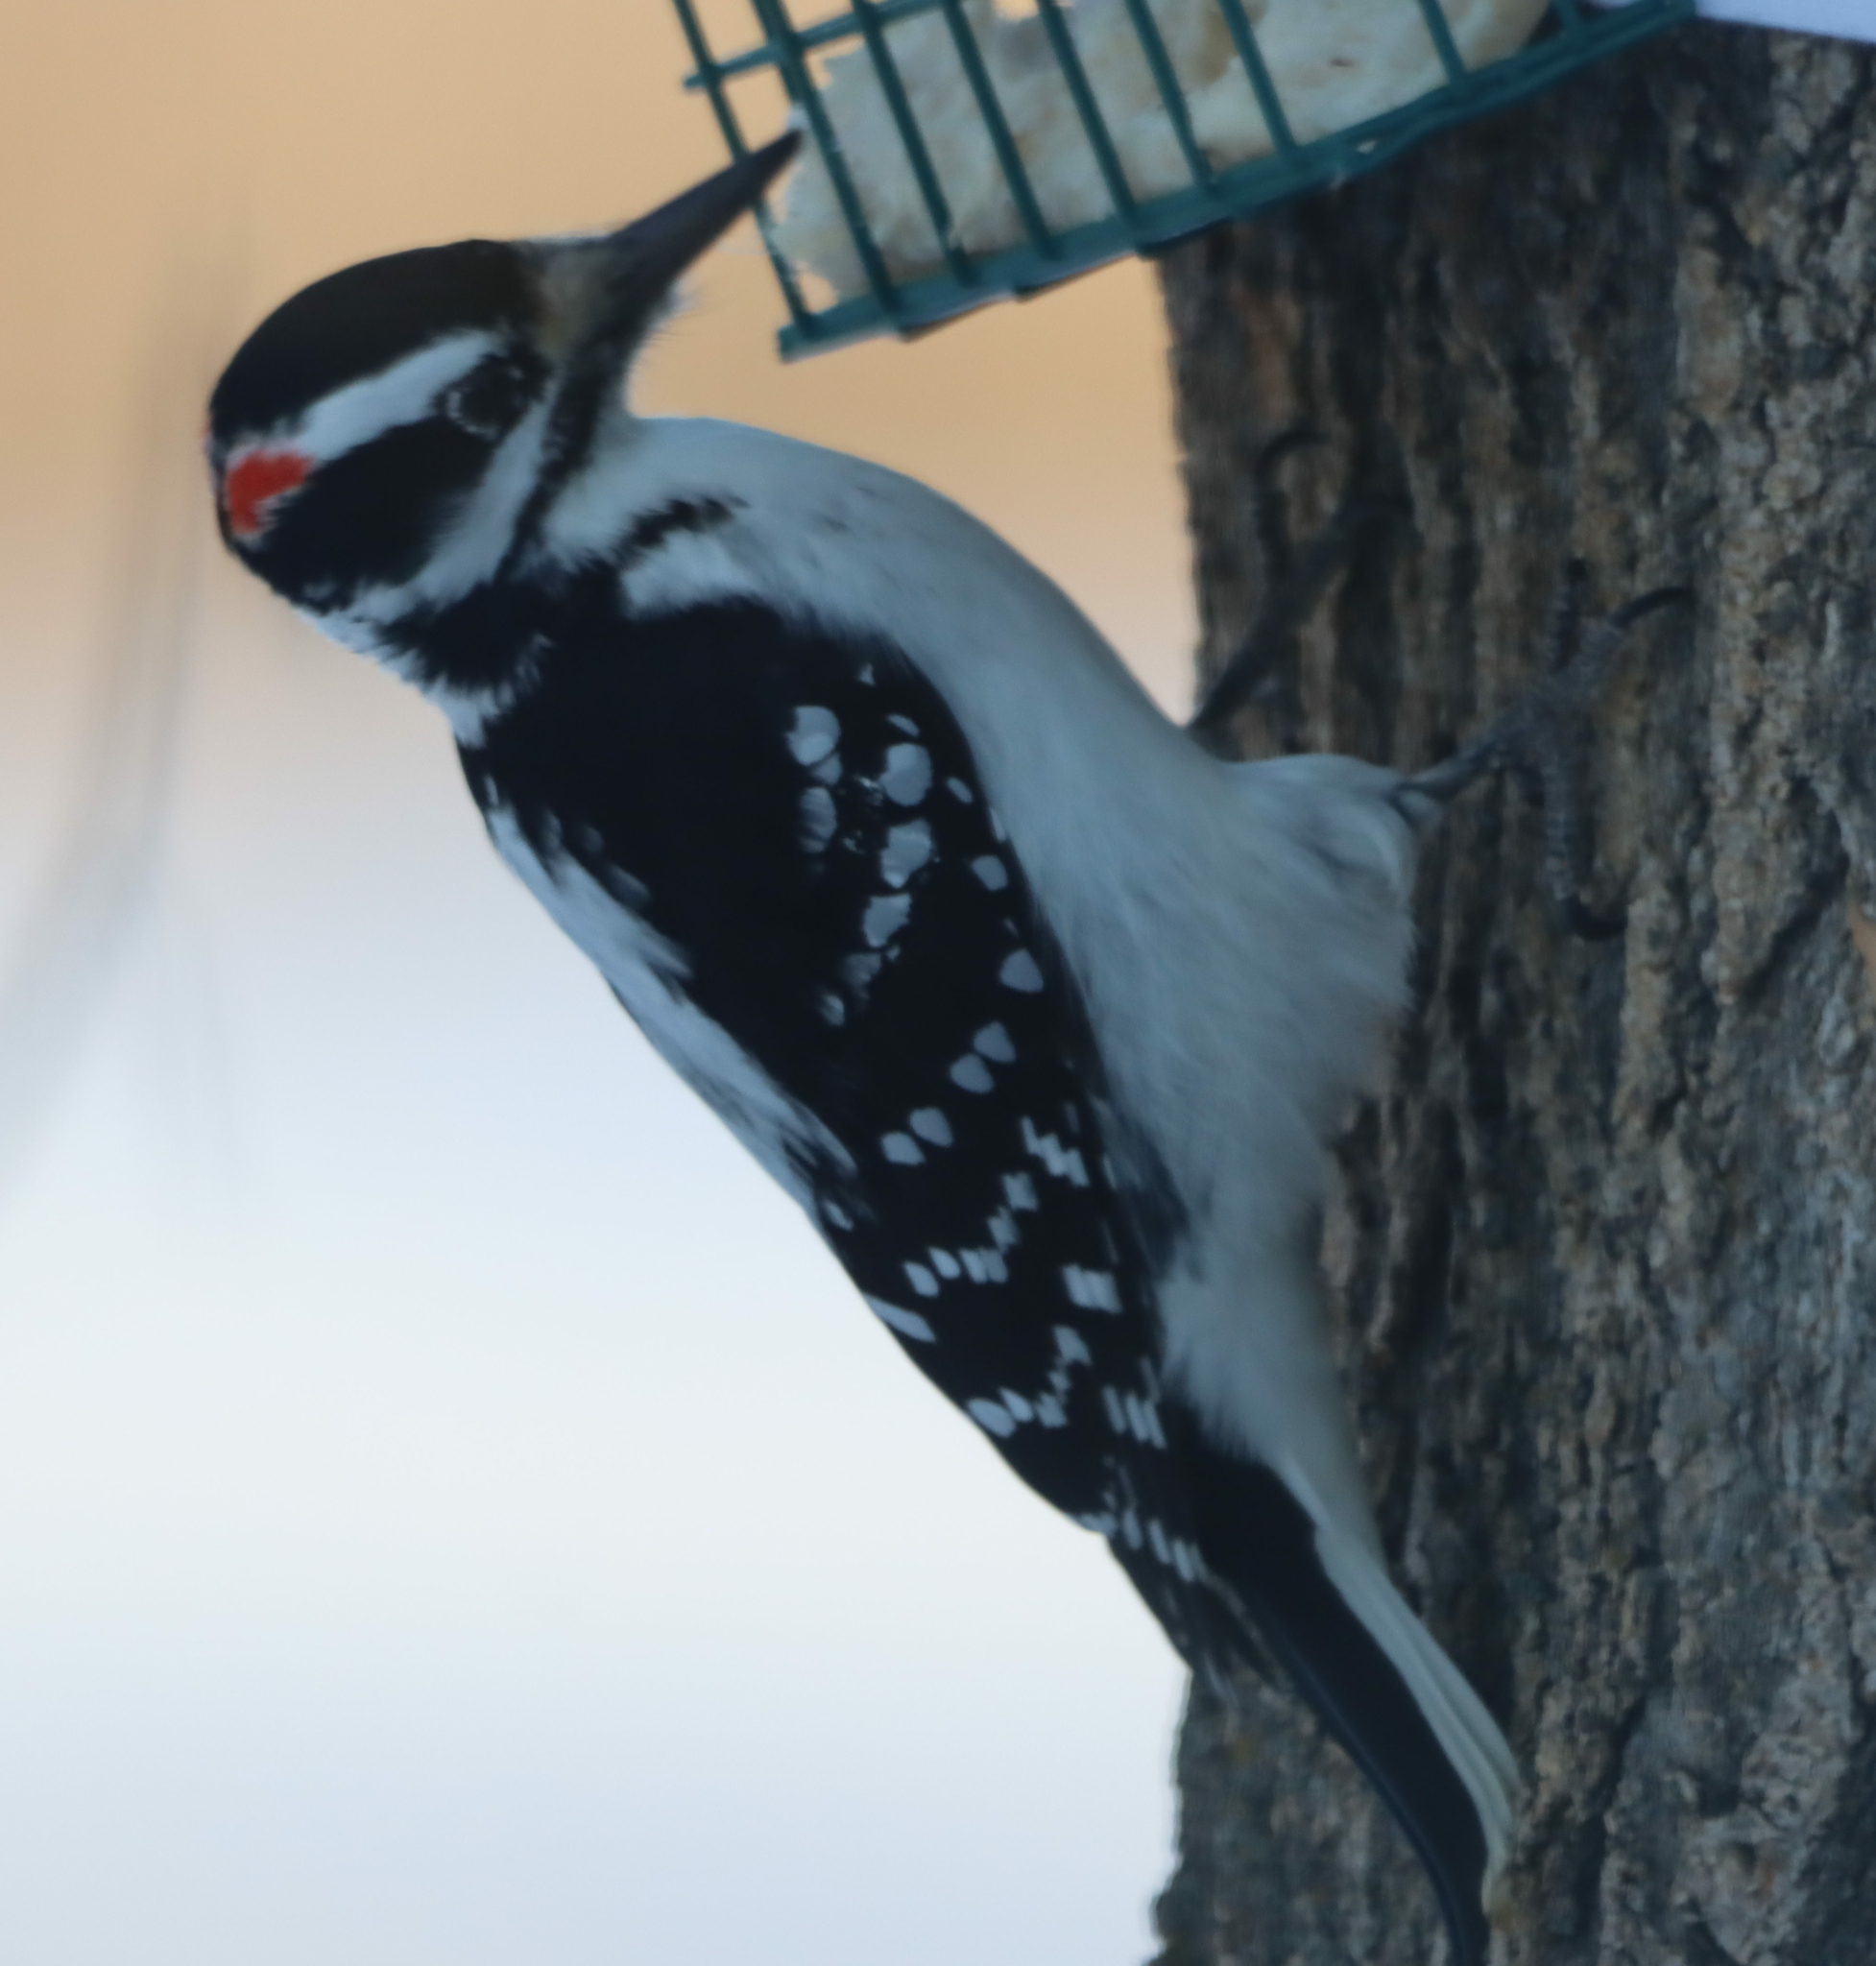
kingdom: Animalia
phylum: Chordata
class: Aves
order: Piciformes
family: Picidae
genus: Leuconotopicus
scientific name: Leuconotopicus villosus
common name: Hairy woodpecker
